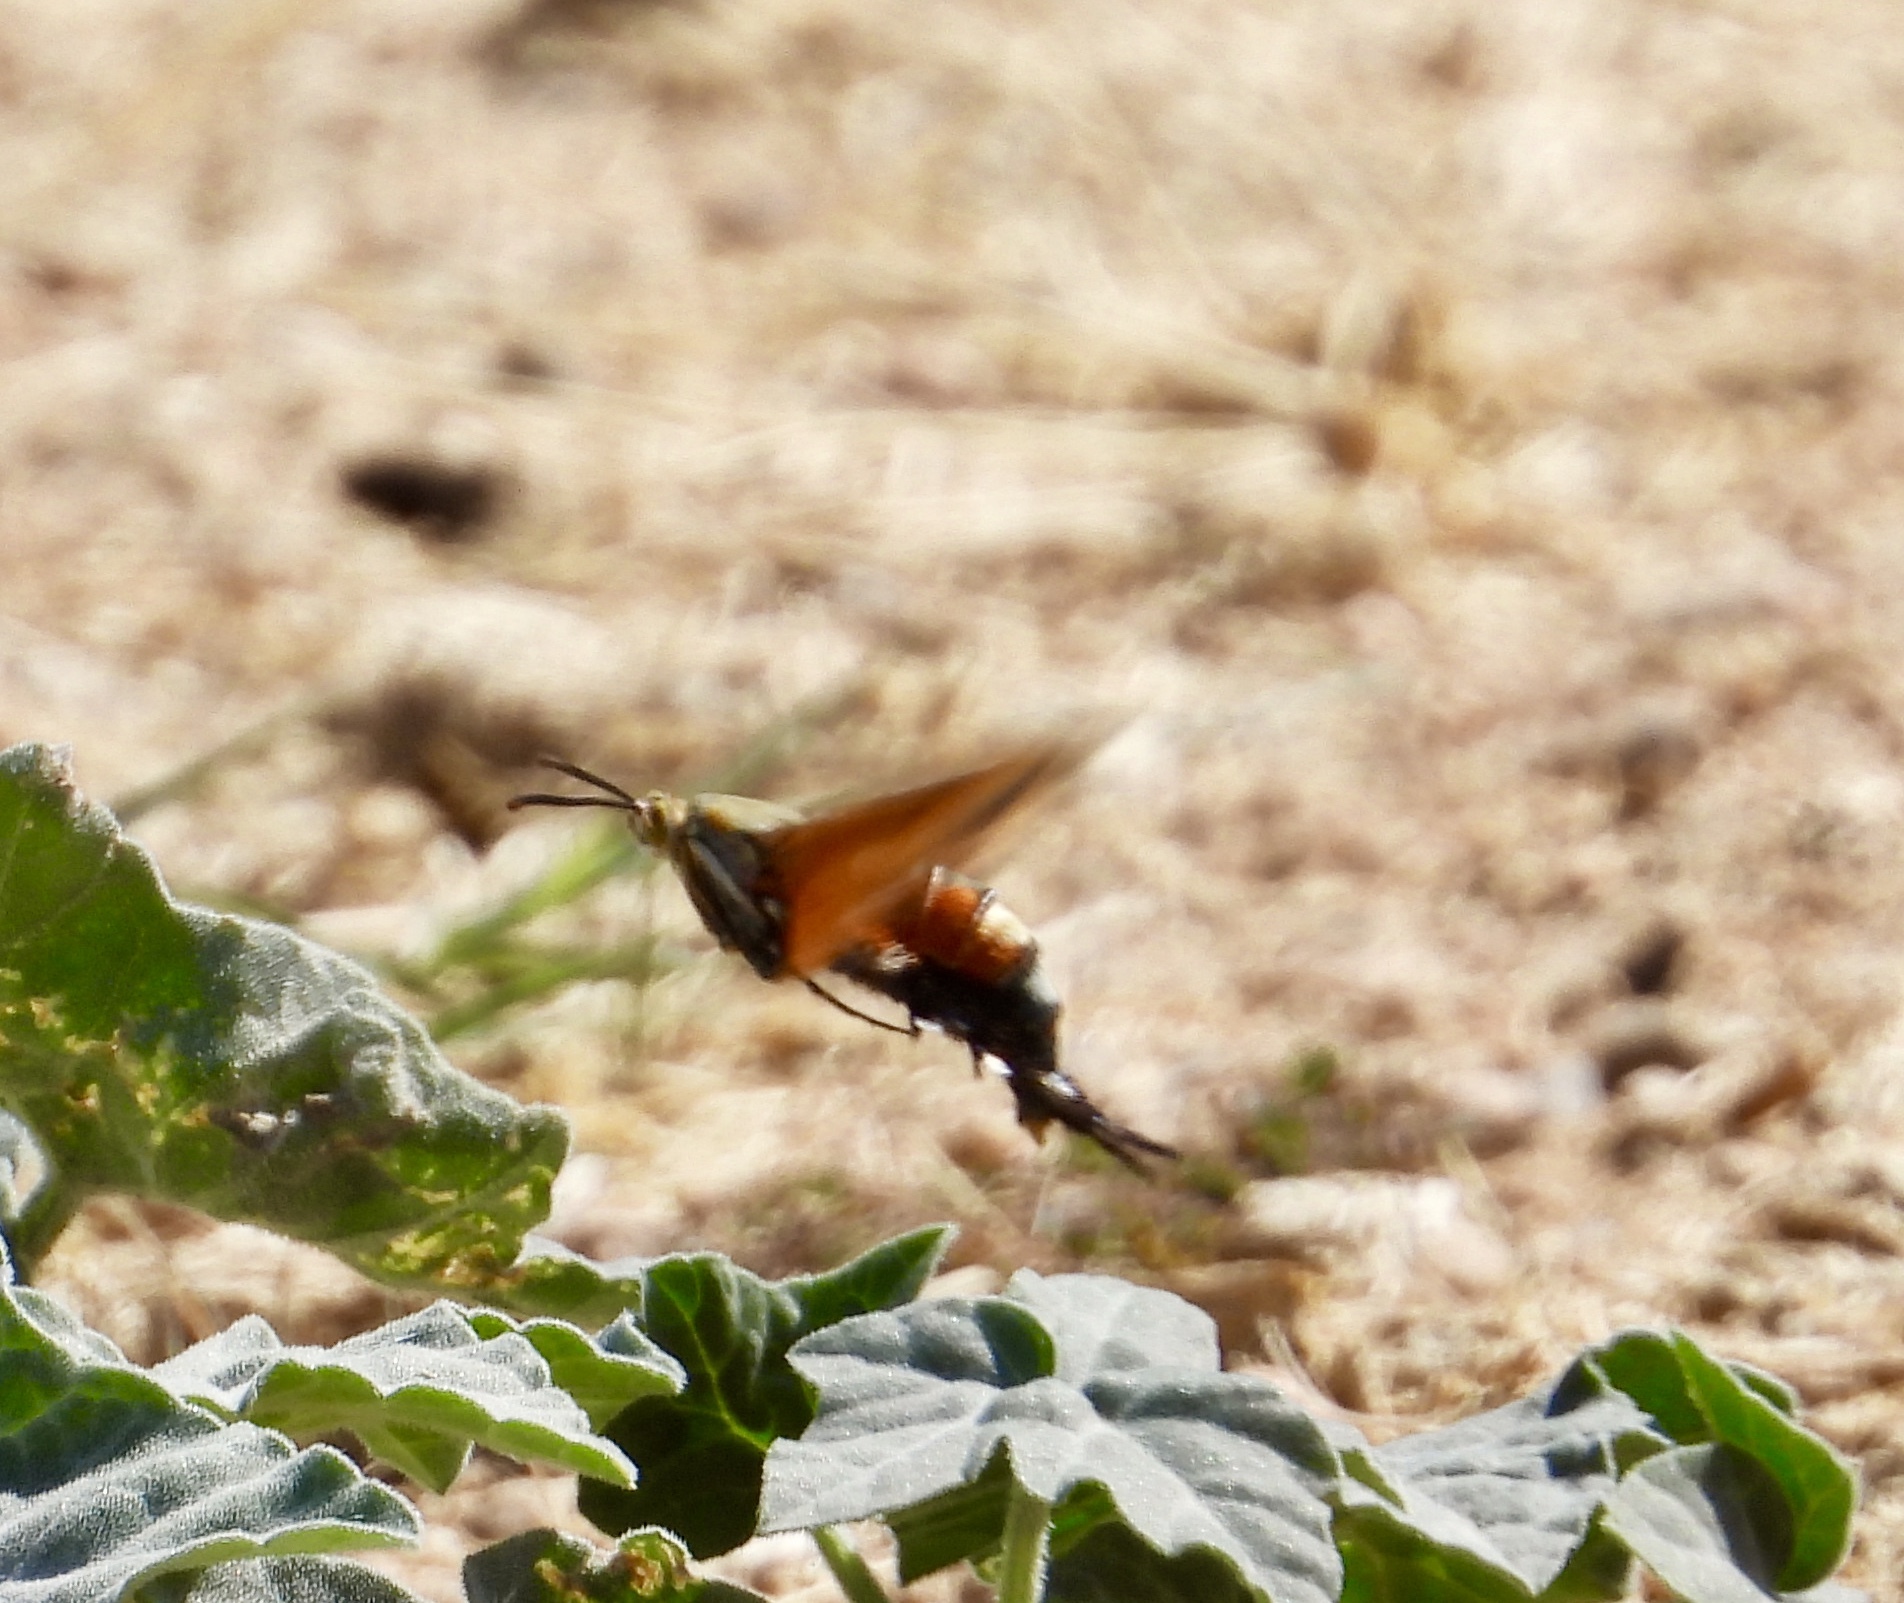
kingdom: Animalia
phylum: Arthropoda
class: Insecta
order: Lepidoptera
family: Sesiidae
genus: Eichlinia
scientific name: Eichlinia gloriosa
